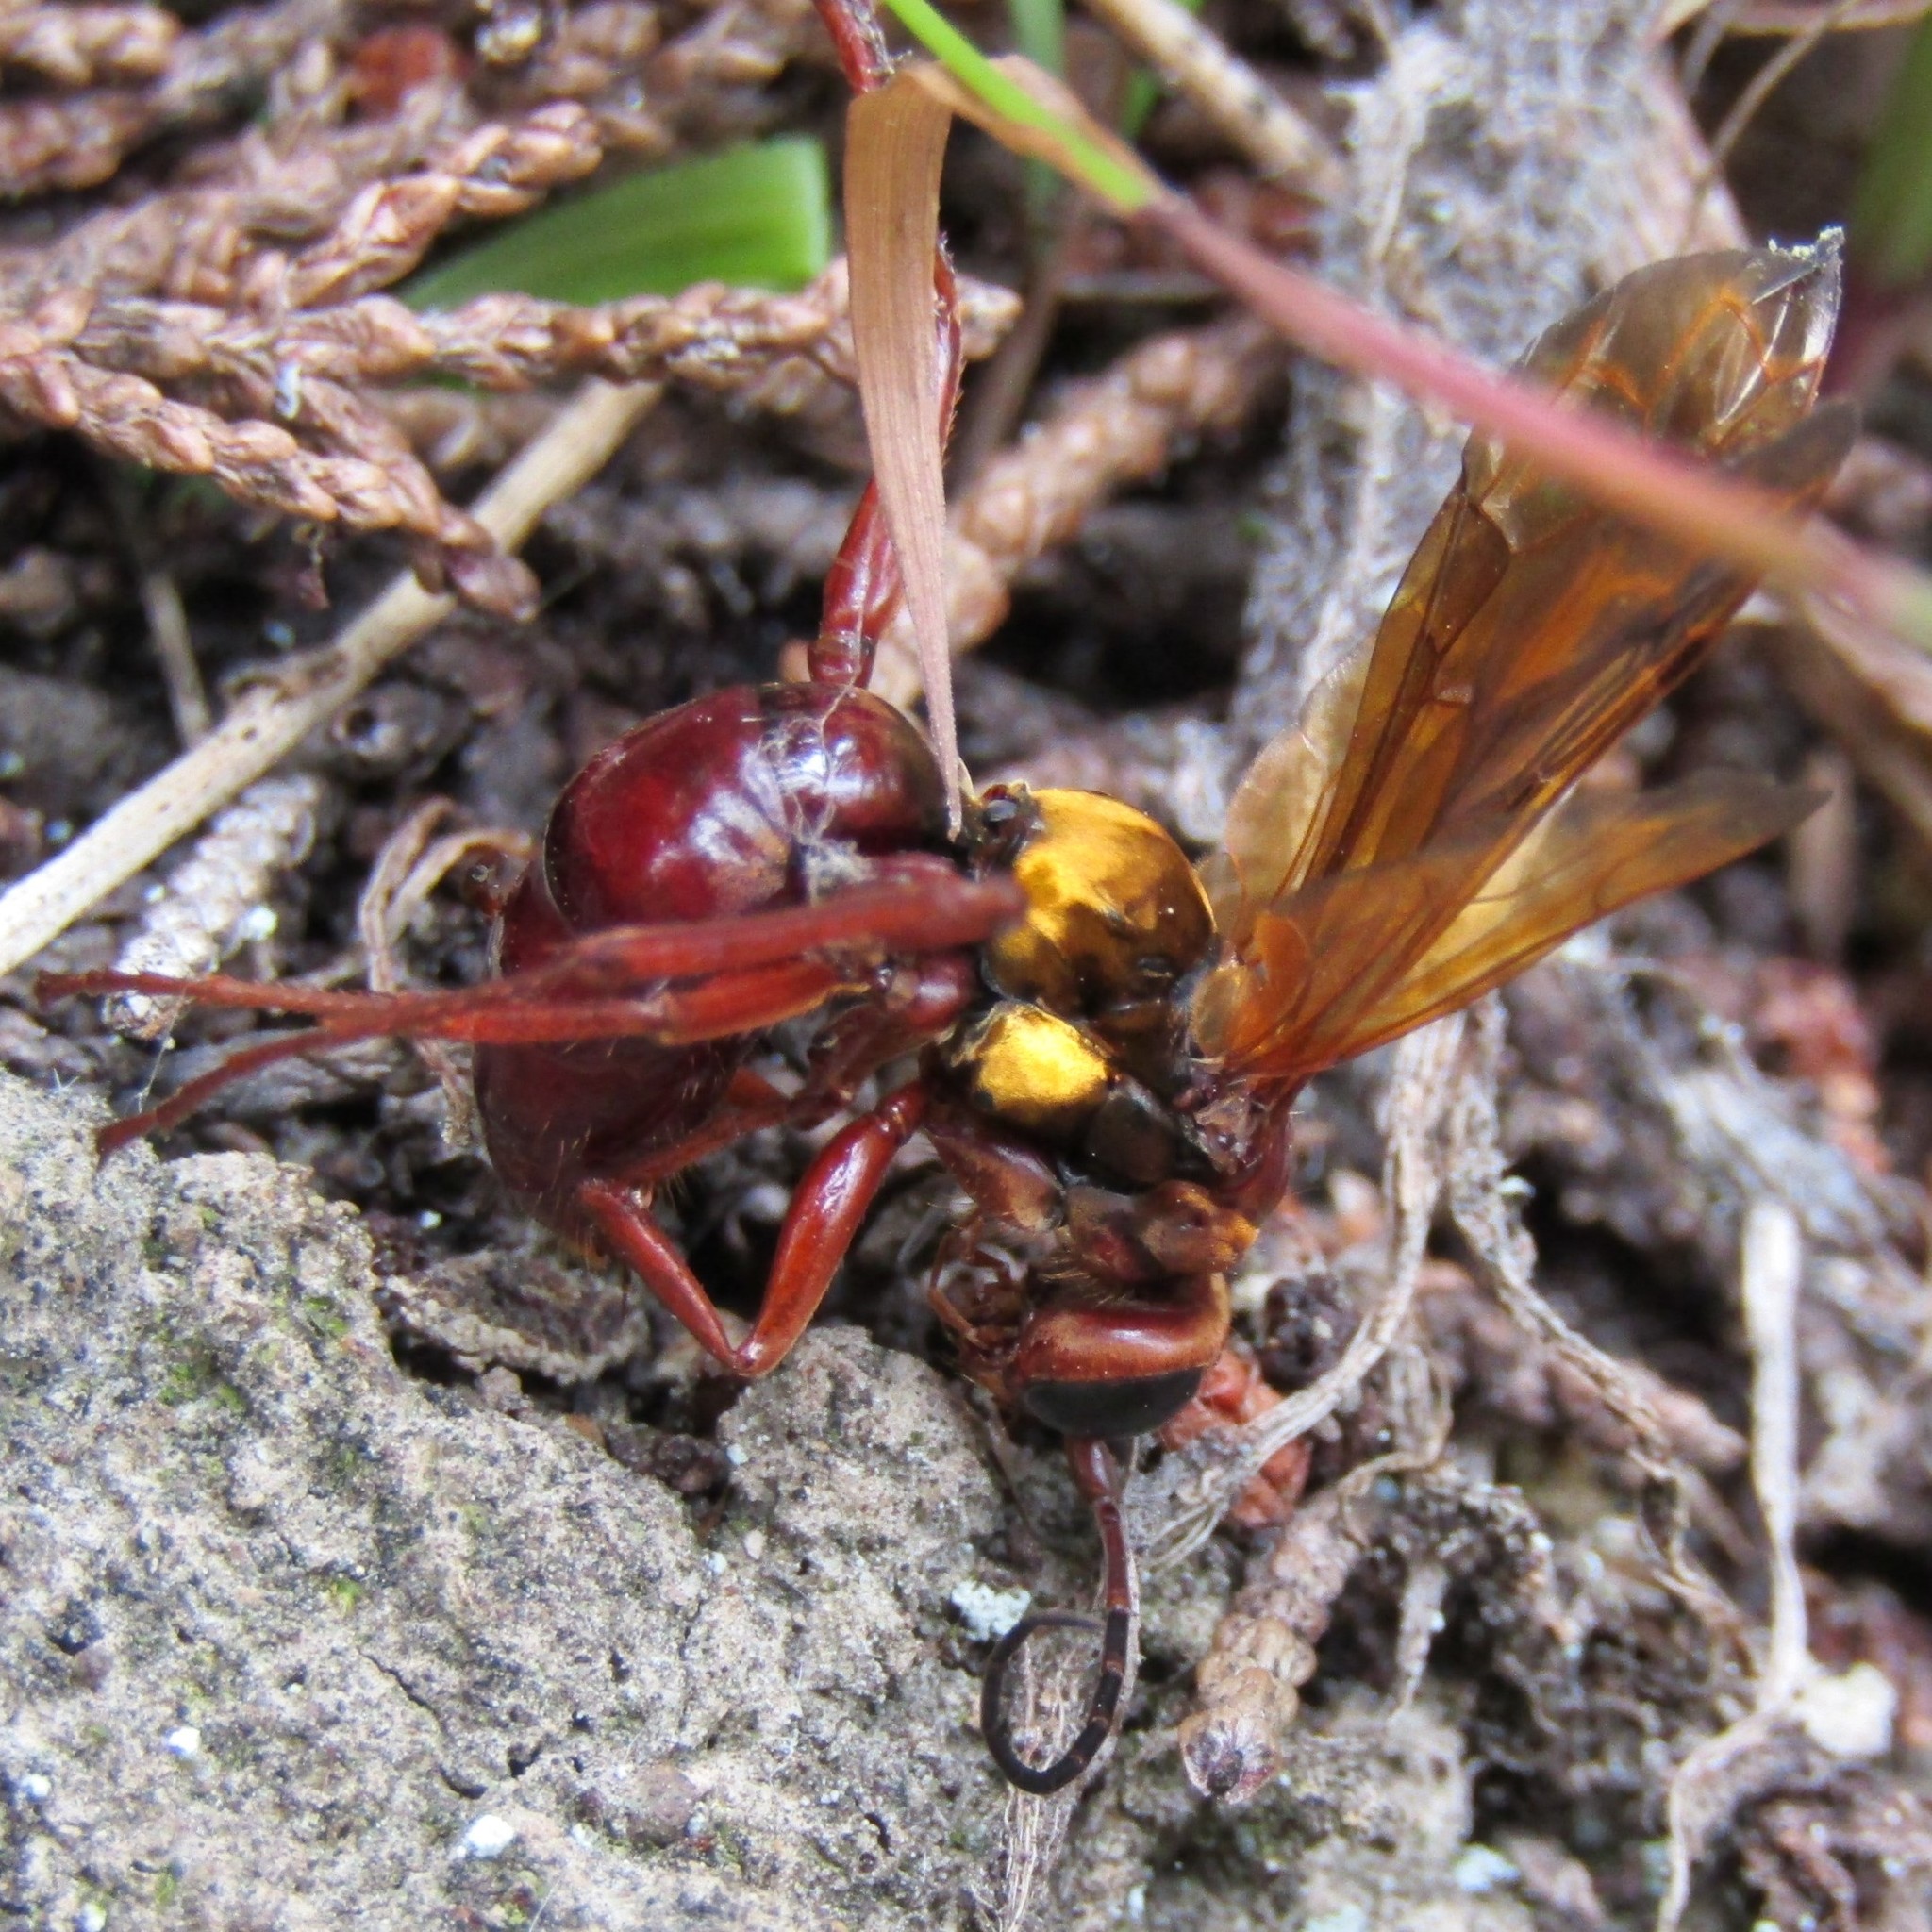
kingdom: Animalia
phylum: Arthropoda
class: Insecta
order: Hymenoptera
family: Pompilidae
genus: Sphictostethus
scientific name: Sphictostethus nitidus
